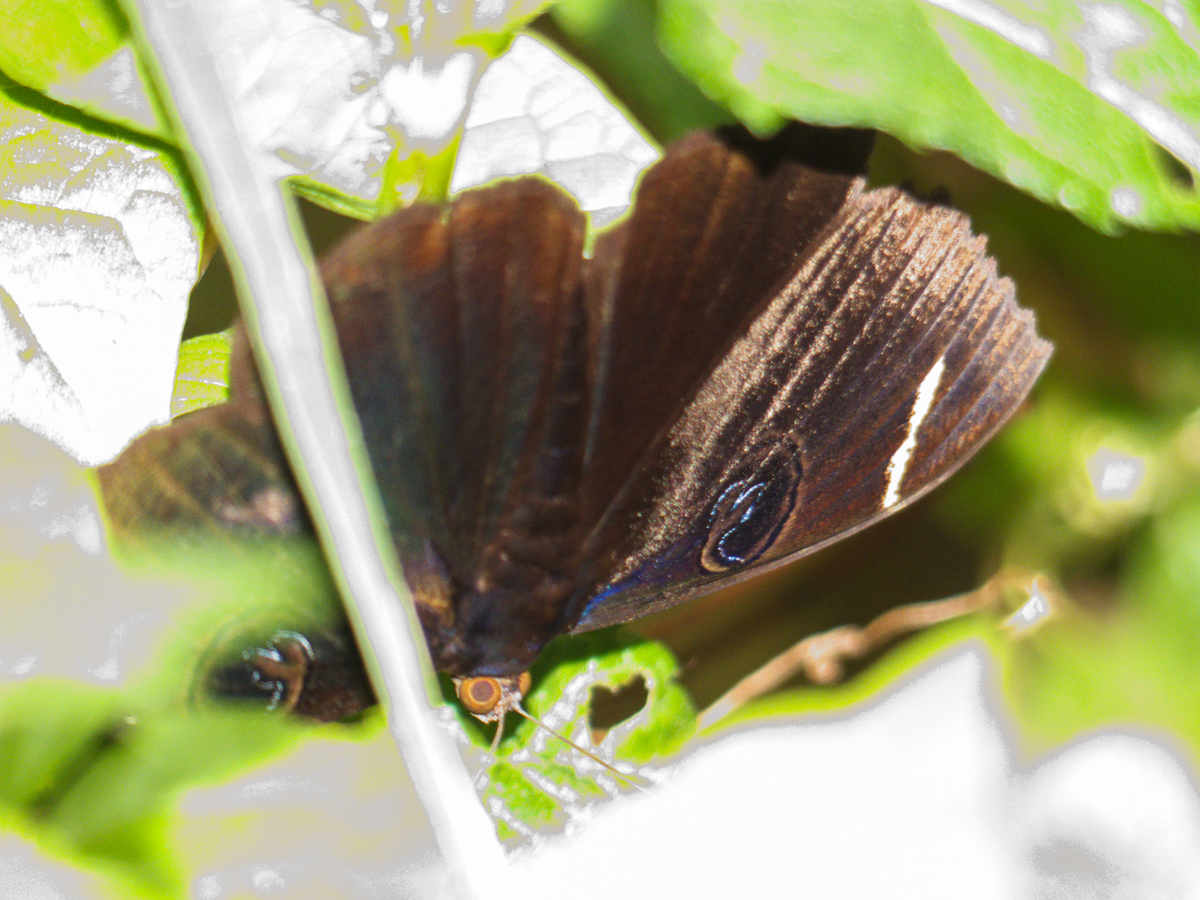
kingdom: Animalia
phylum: Arthropoda
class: Insecta
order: Lepidoptera
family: Erebidae
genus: Erebus
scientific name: Erebus hieroglyphica
